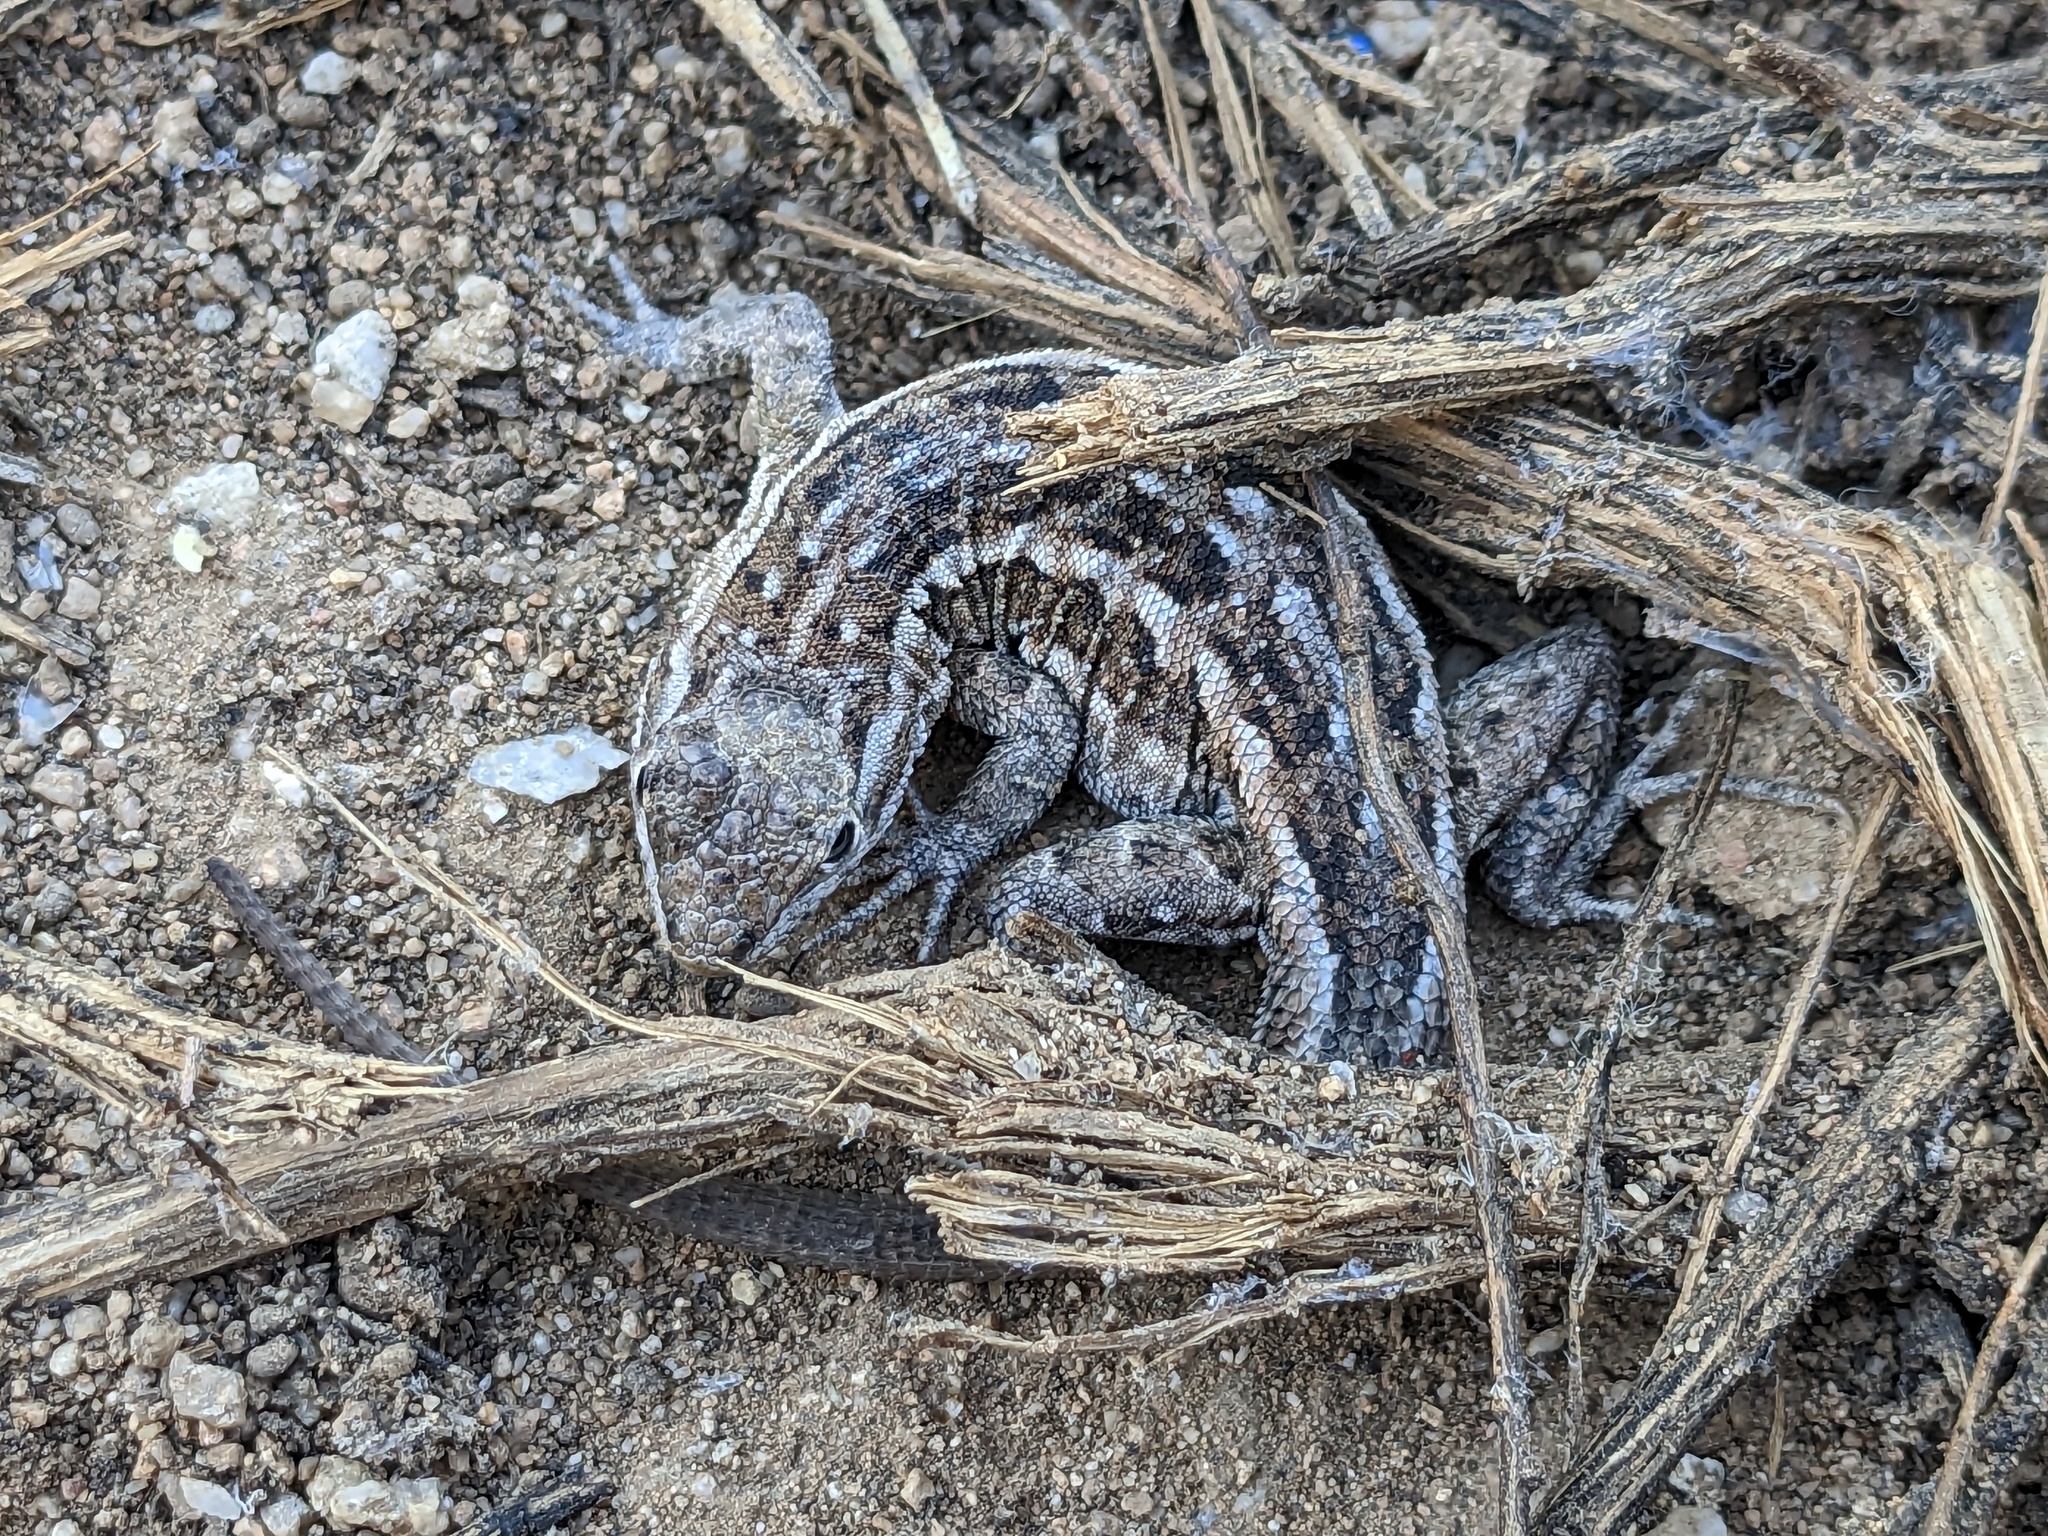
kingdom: Animalia
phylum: Chordata
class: Squamata
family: Phrynosomatidae
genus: Uta
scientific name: Uta stansburiana
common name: Side-blotched lizard
